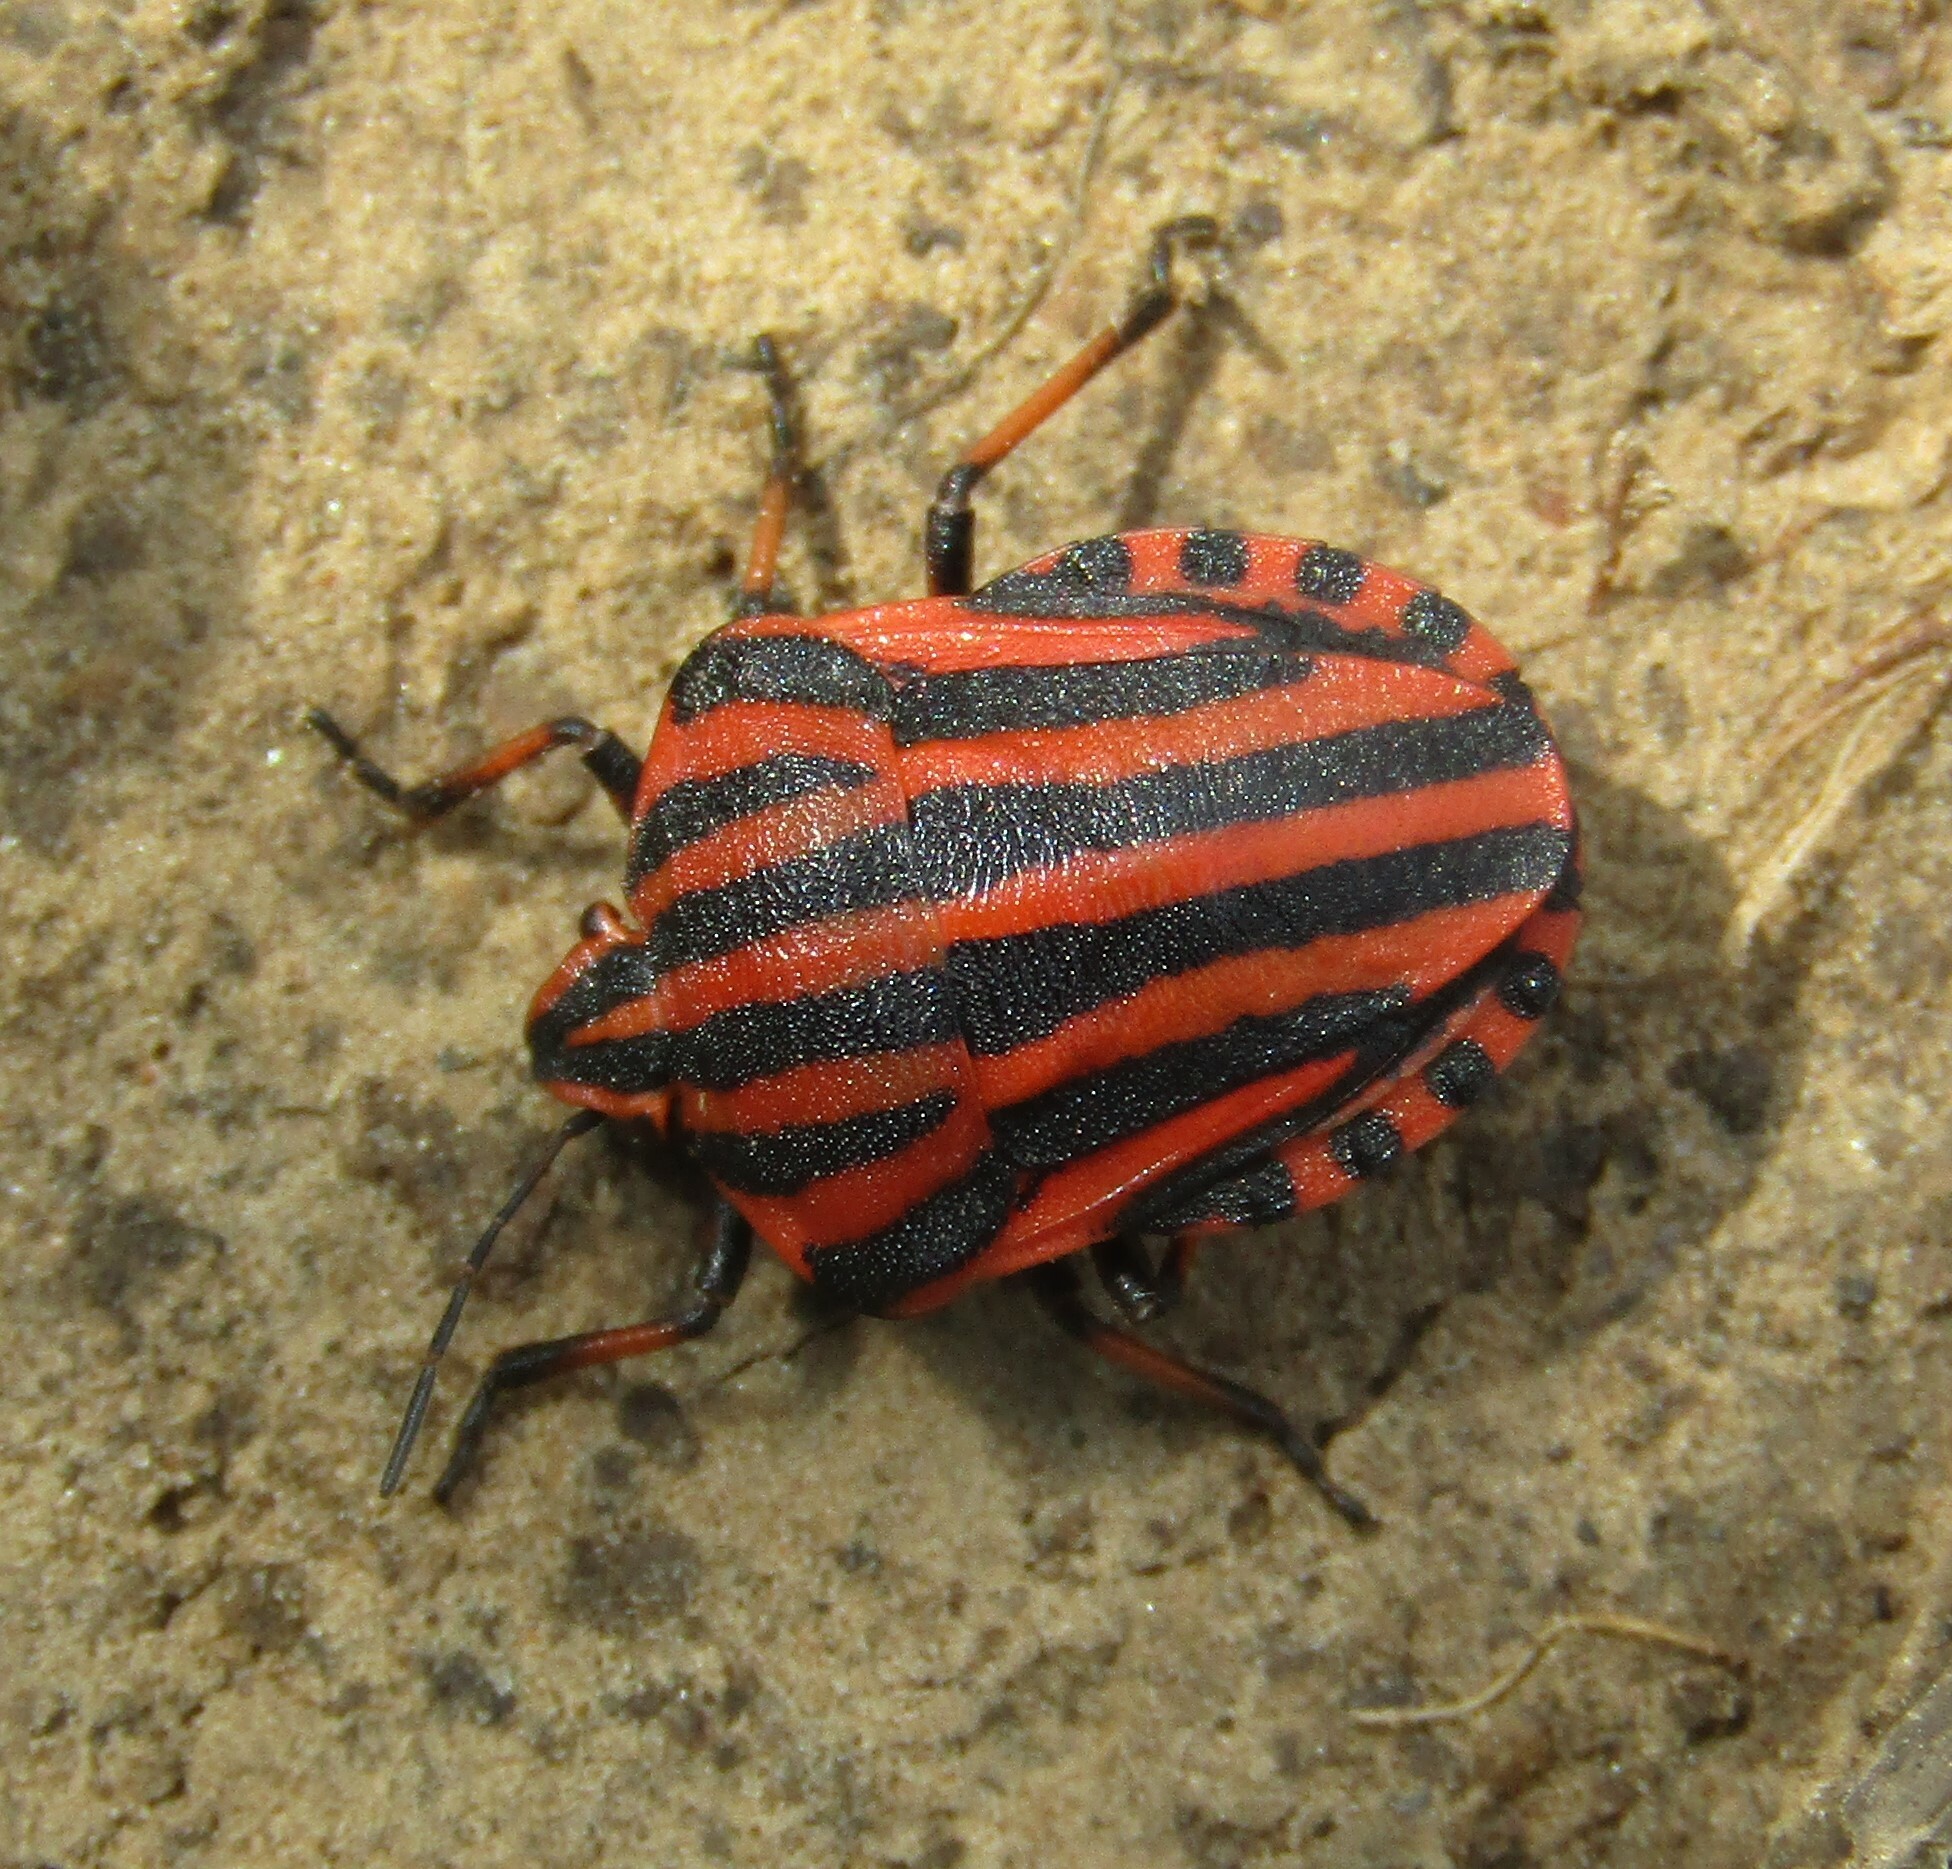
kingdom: Animalia
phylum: Arthropoda
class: Insecta
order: Hemiptera
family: Pentatomidae
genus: Graphosoma
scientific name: Graphosoma italicum
